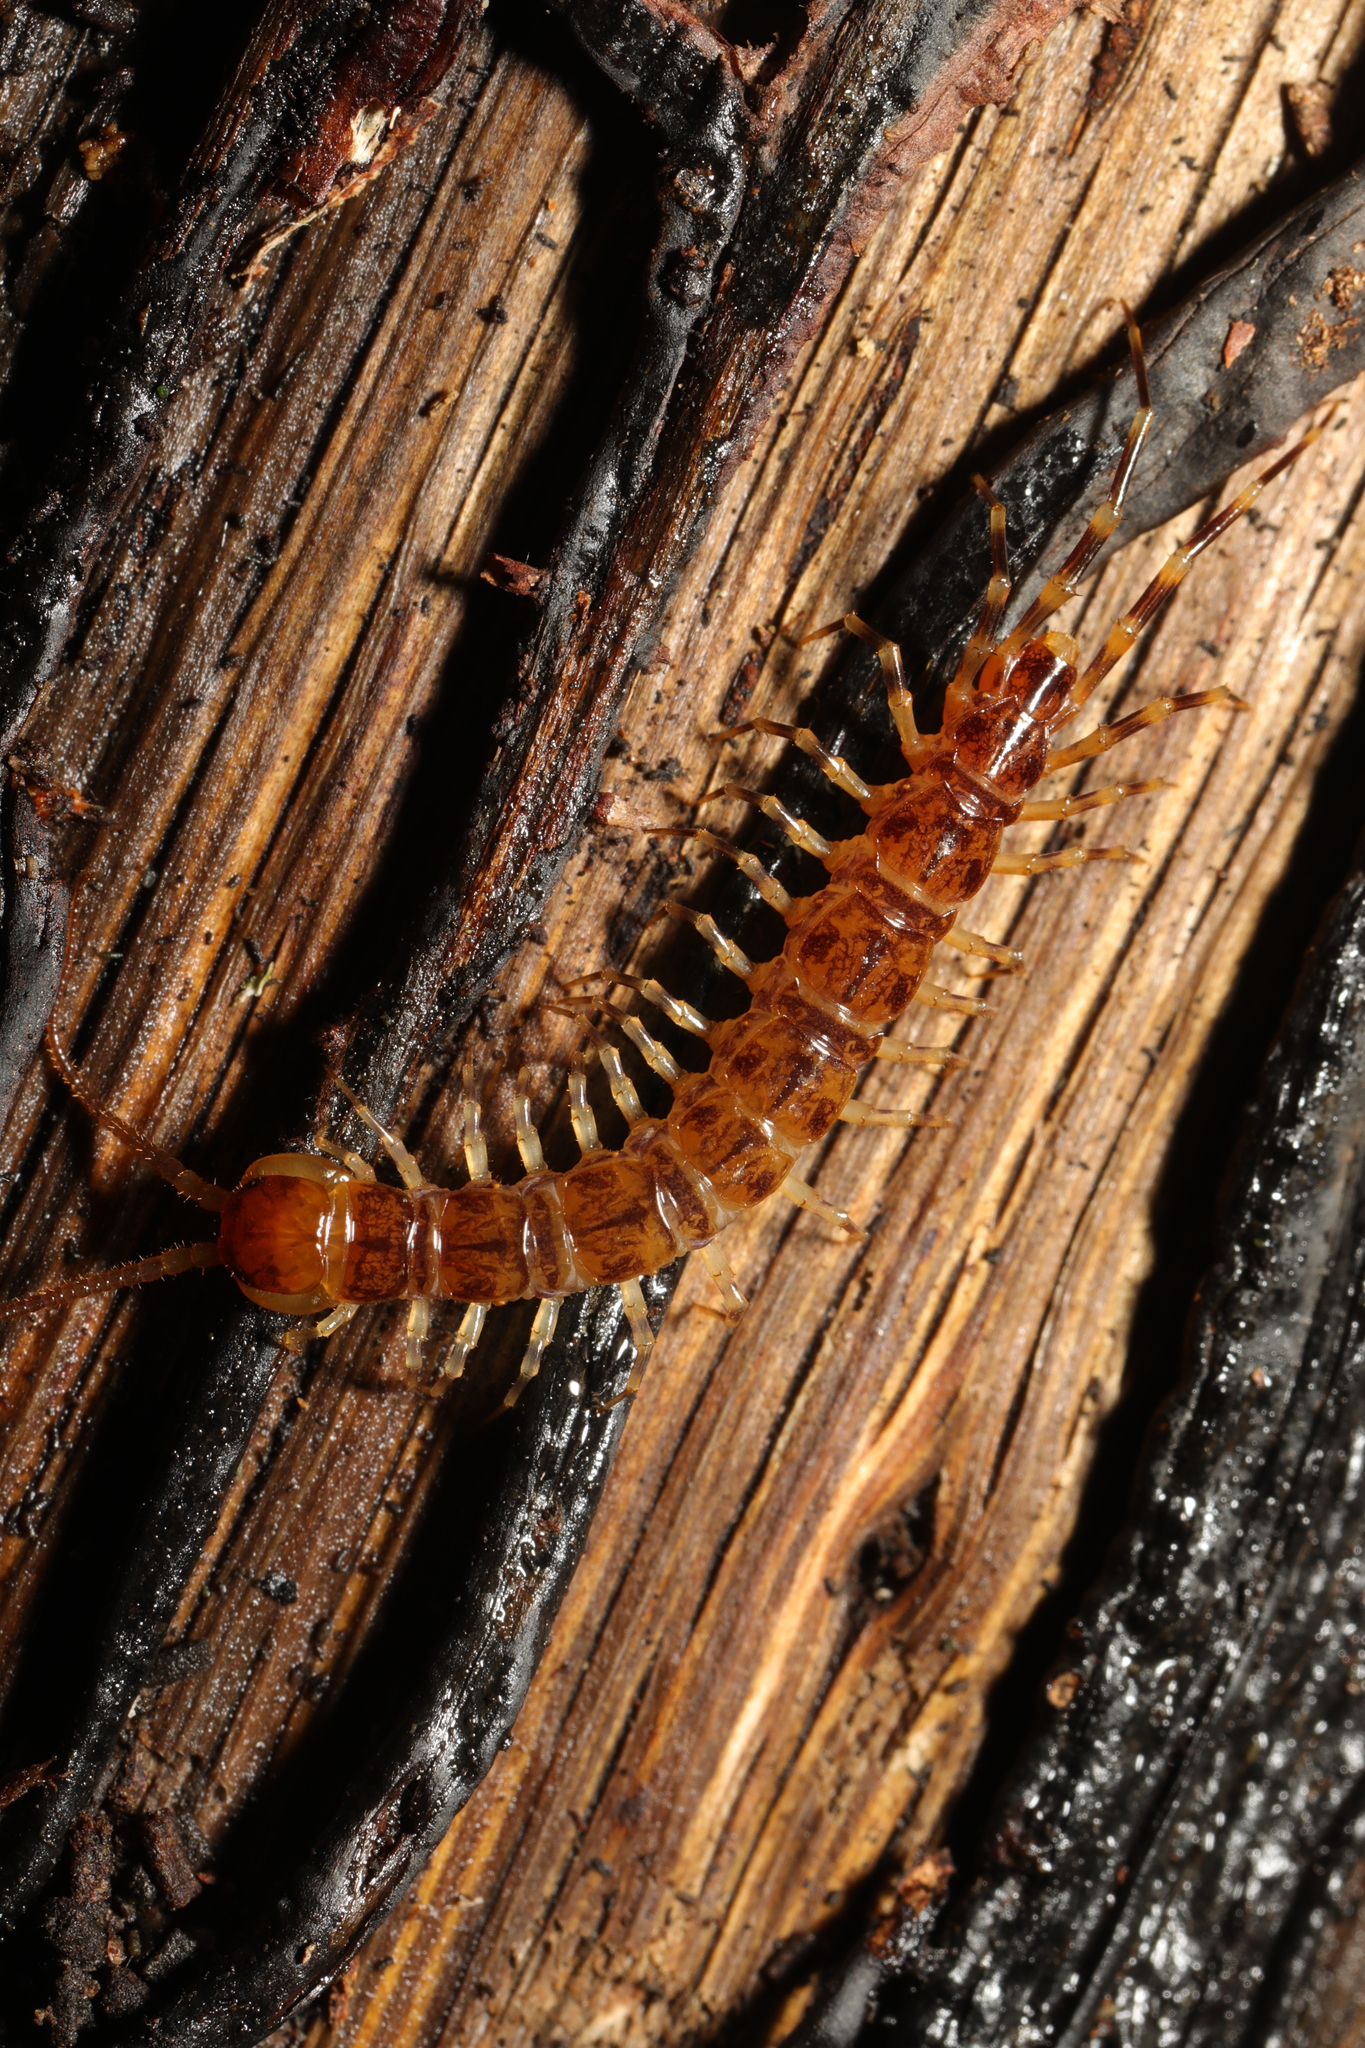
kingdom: Animalia
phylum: Arthropoda
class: Chilopoda
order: Lithobiomorpha
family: Lithobiidae
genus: Lithobius
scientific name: Lithobius variegatus
